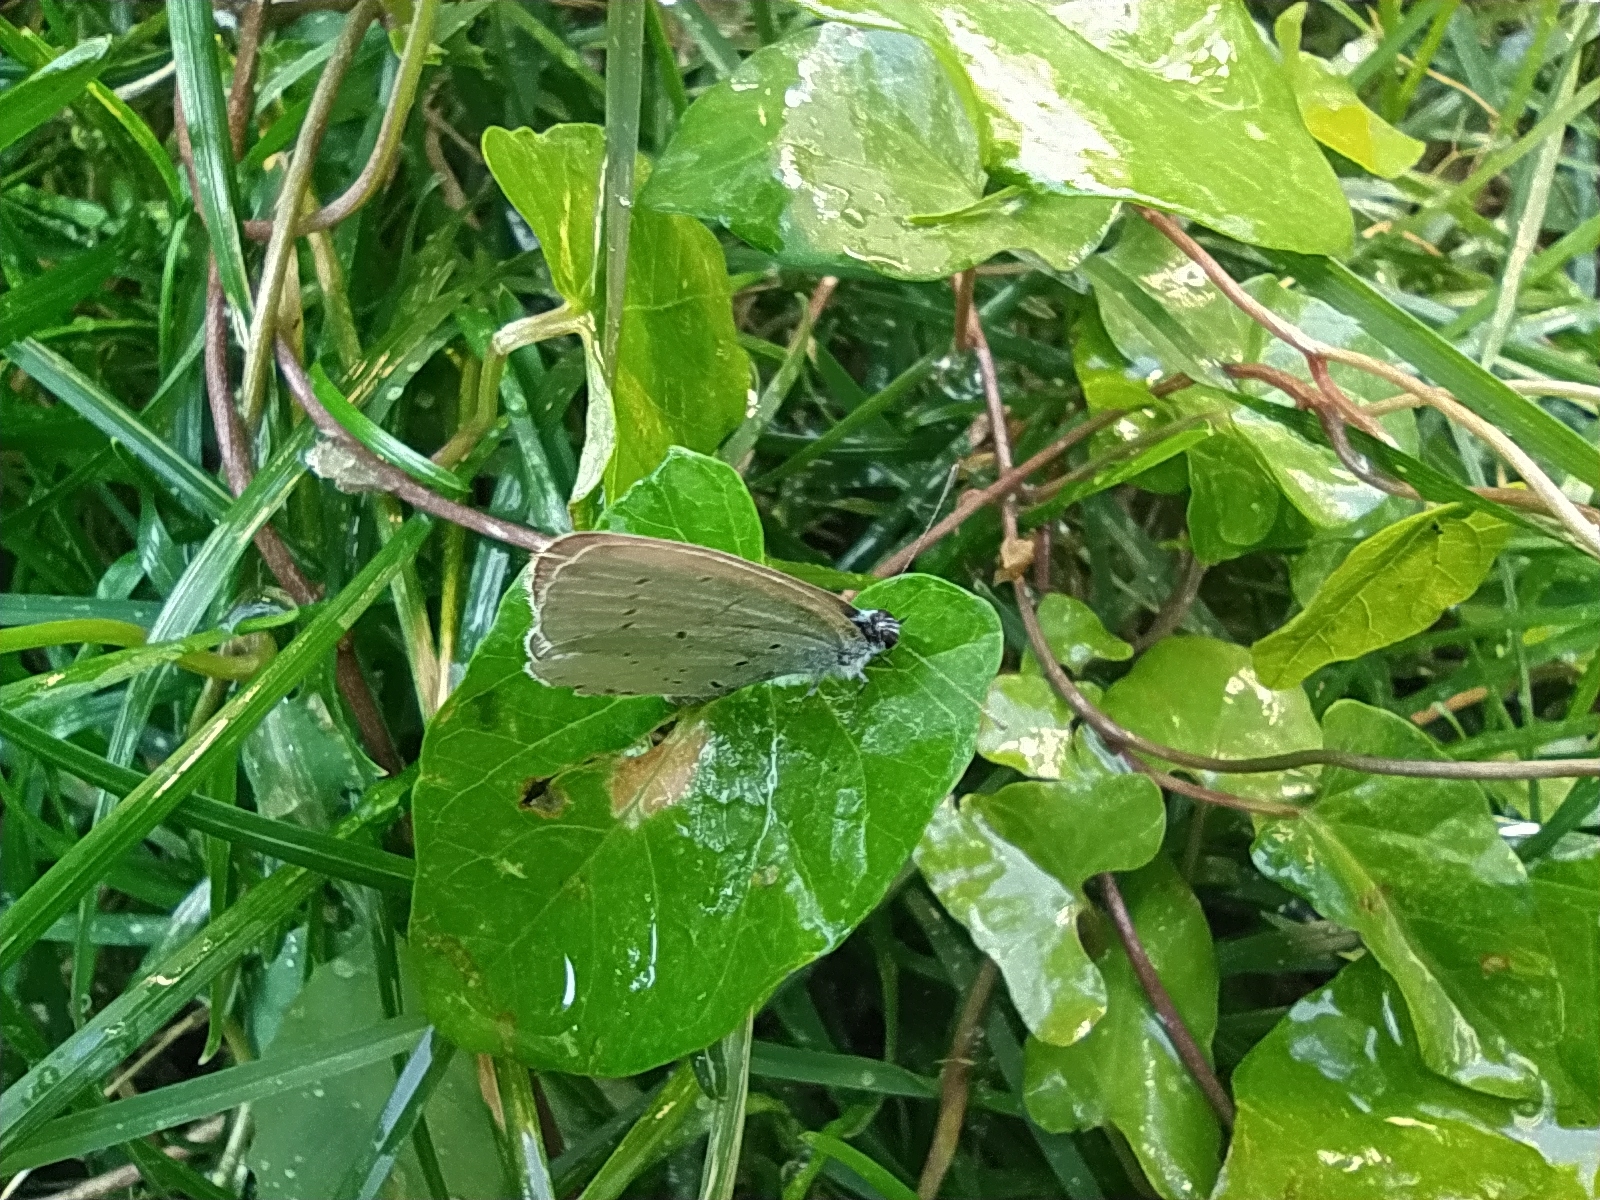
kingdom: Animalia
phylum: Arthropoda
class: Insecta
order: Lepidoptera
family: Lycaenidae
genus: Celastrina
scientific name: Celastrina argiolus
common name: Holly blue
